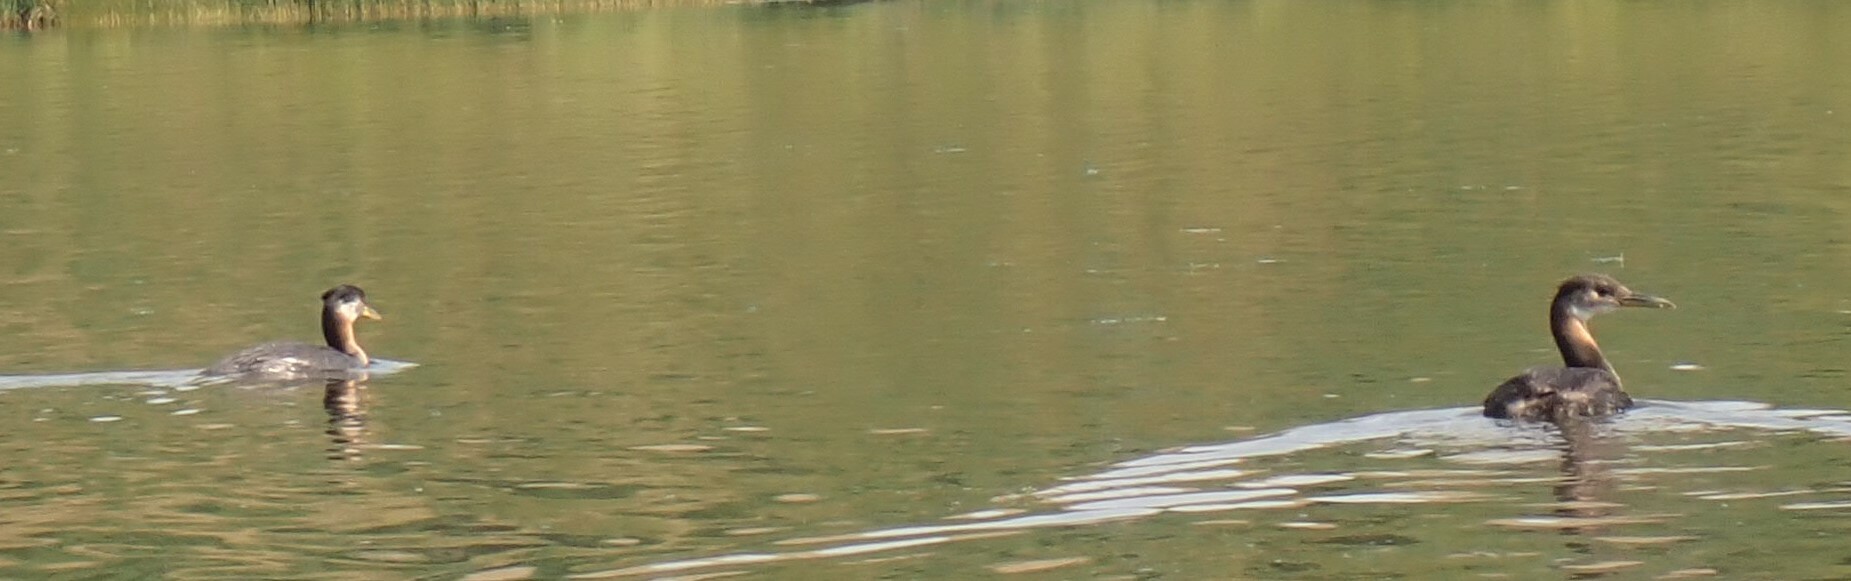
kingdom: Animalia
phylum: Chordata
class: Aves
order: Podicipediformes
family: Podicipedidae
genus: Podiceps
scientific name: Podiceps grisegena
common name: Red-necked grebe
